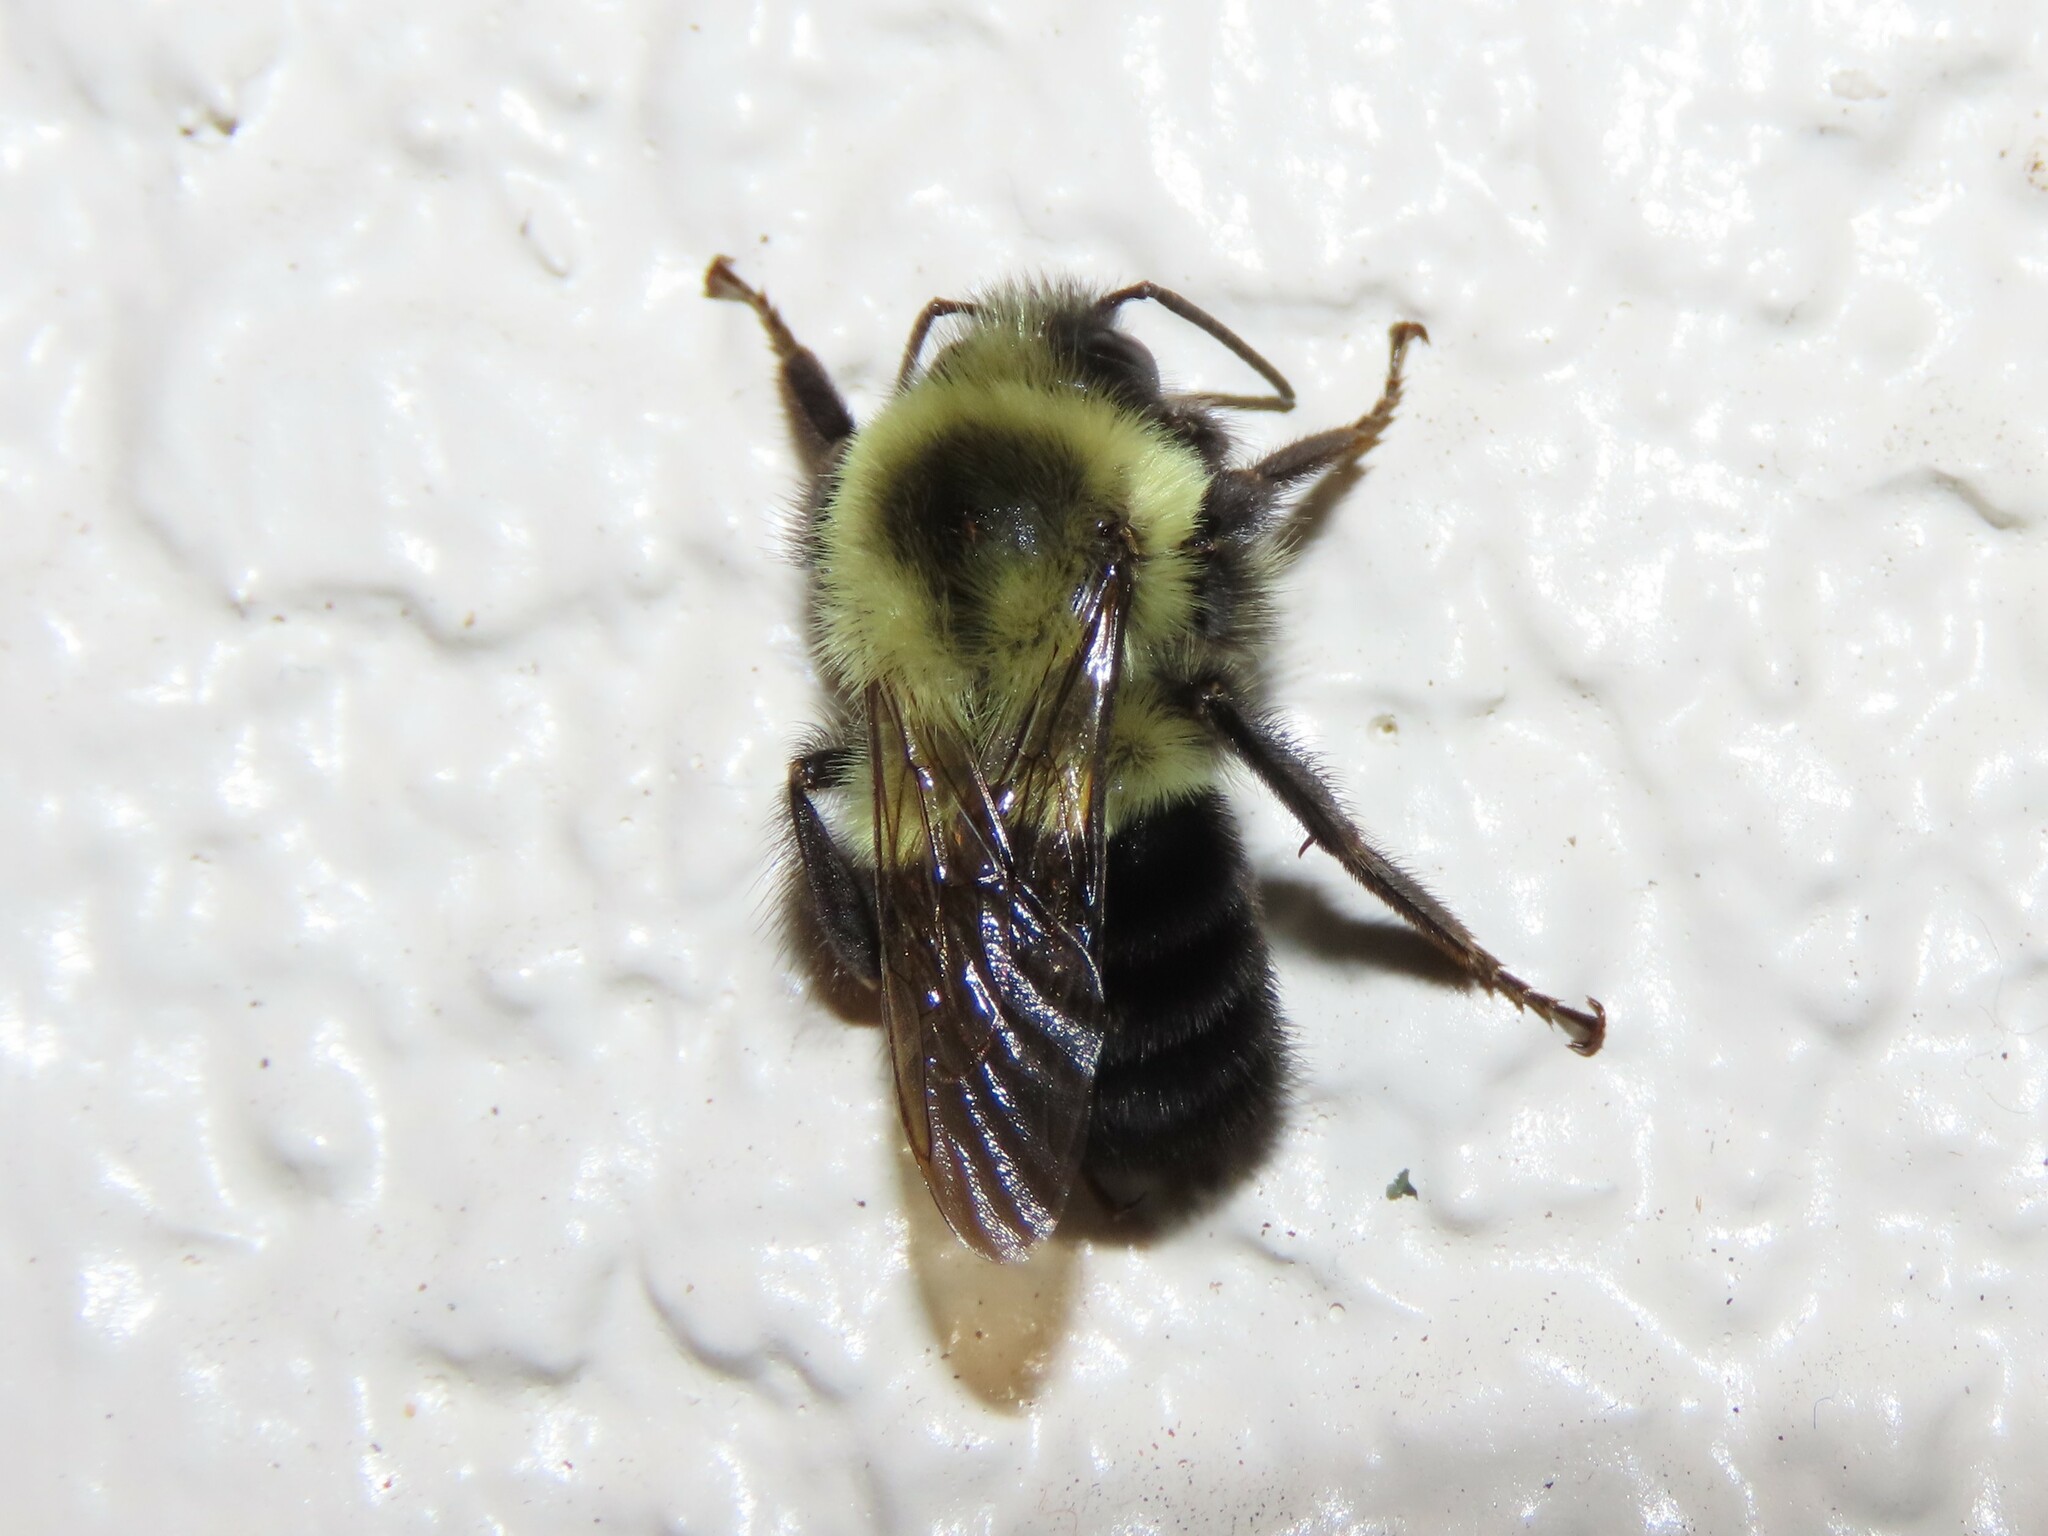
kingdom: Animalia
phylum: Arthropoda
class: Insecta
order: Hymenoptera
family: Apidae
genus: Bombus
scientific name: Bombus impatiens
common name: Common eastern bumble bee
